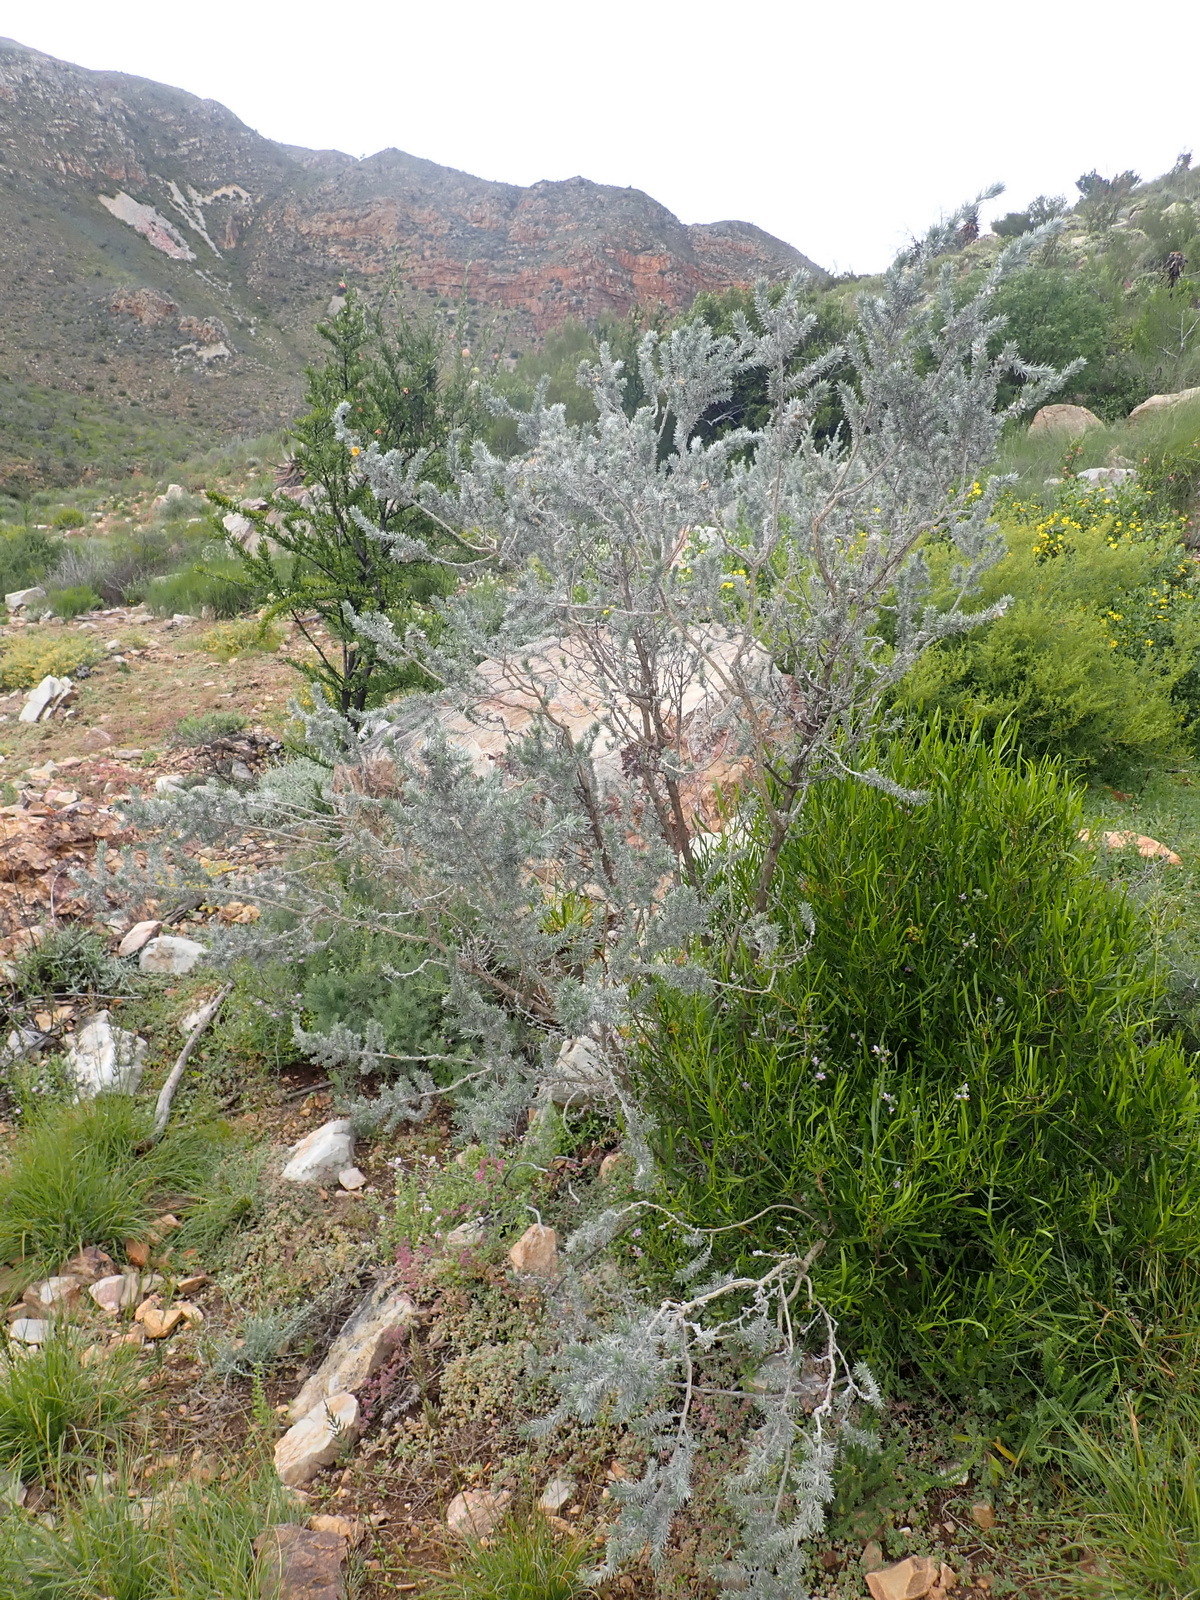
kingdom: Plantae
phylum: Tracheophyta
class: Magnoliopsida
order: Fabales
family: Fabaceae
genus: Aspalathus
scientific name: Aspalathus hystrix
